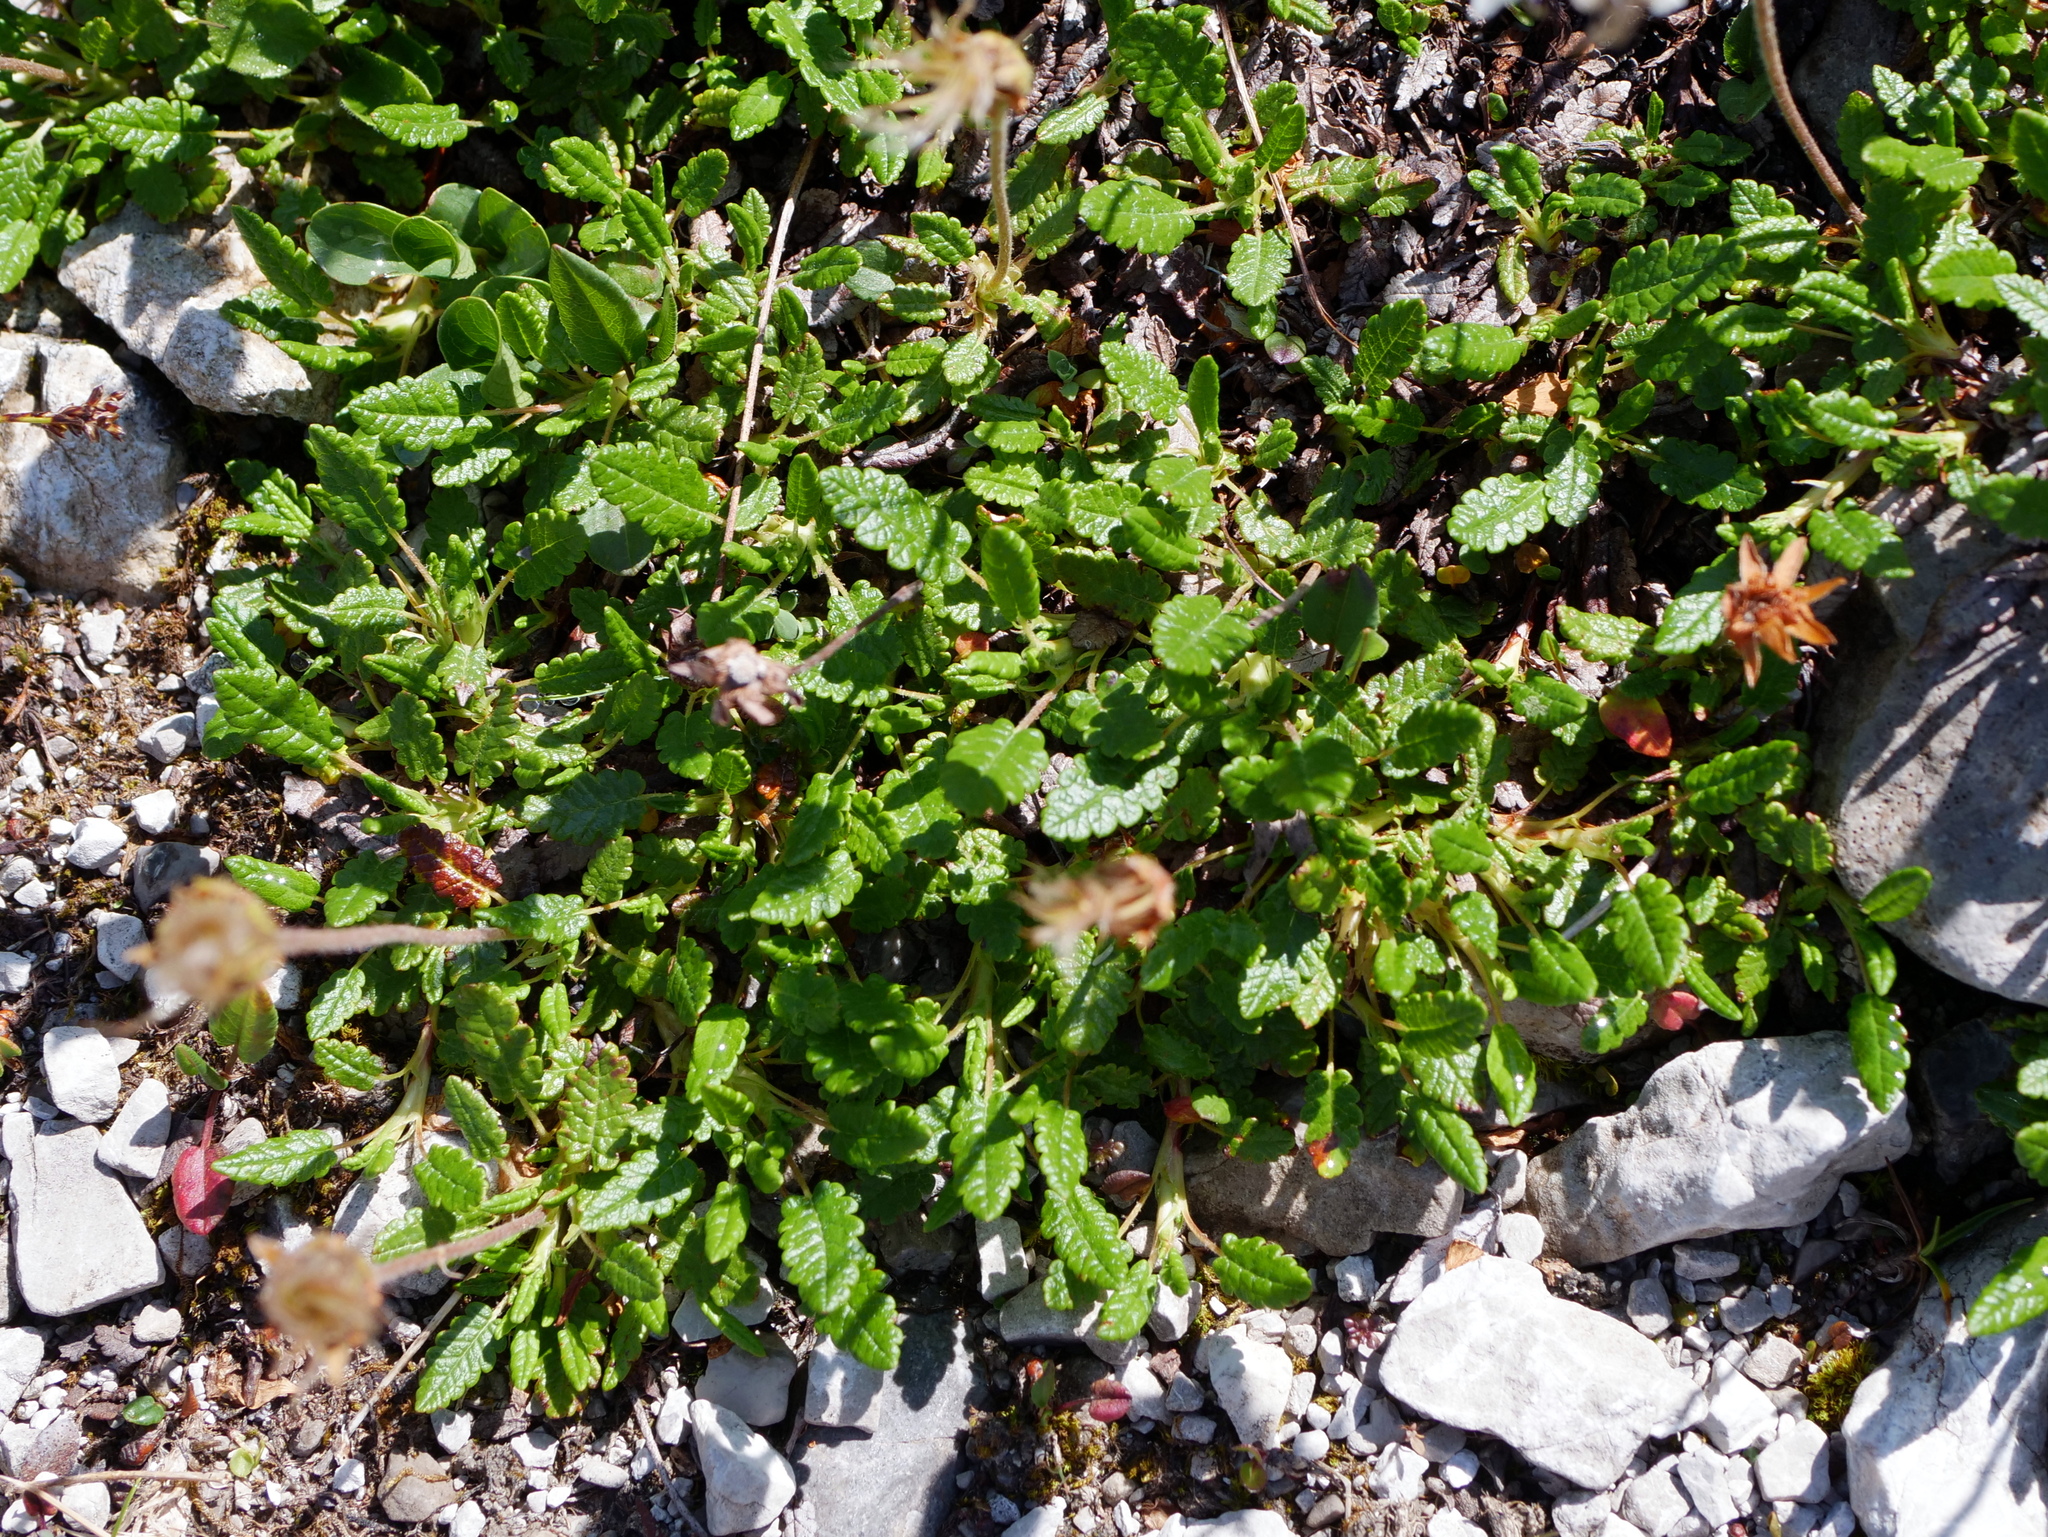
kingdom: Plantae
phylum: Tracheophyta
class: Magnoliopsida
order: Rosales
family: Rosaceae
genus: Dryas
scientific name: Dryas octopetala
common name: Eight-petal mountain-avens
